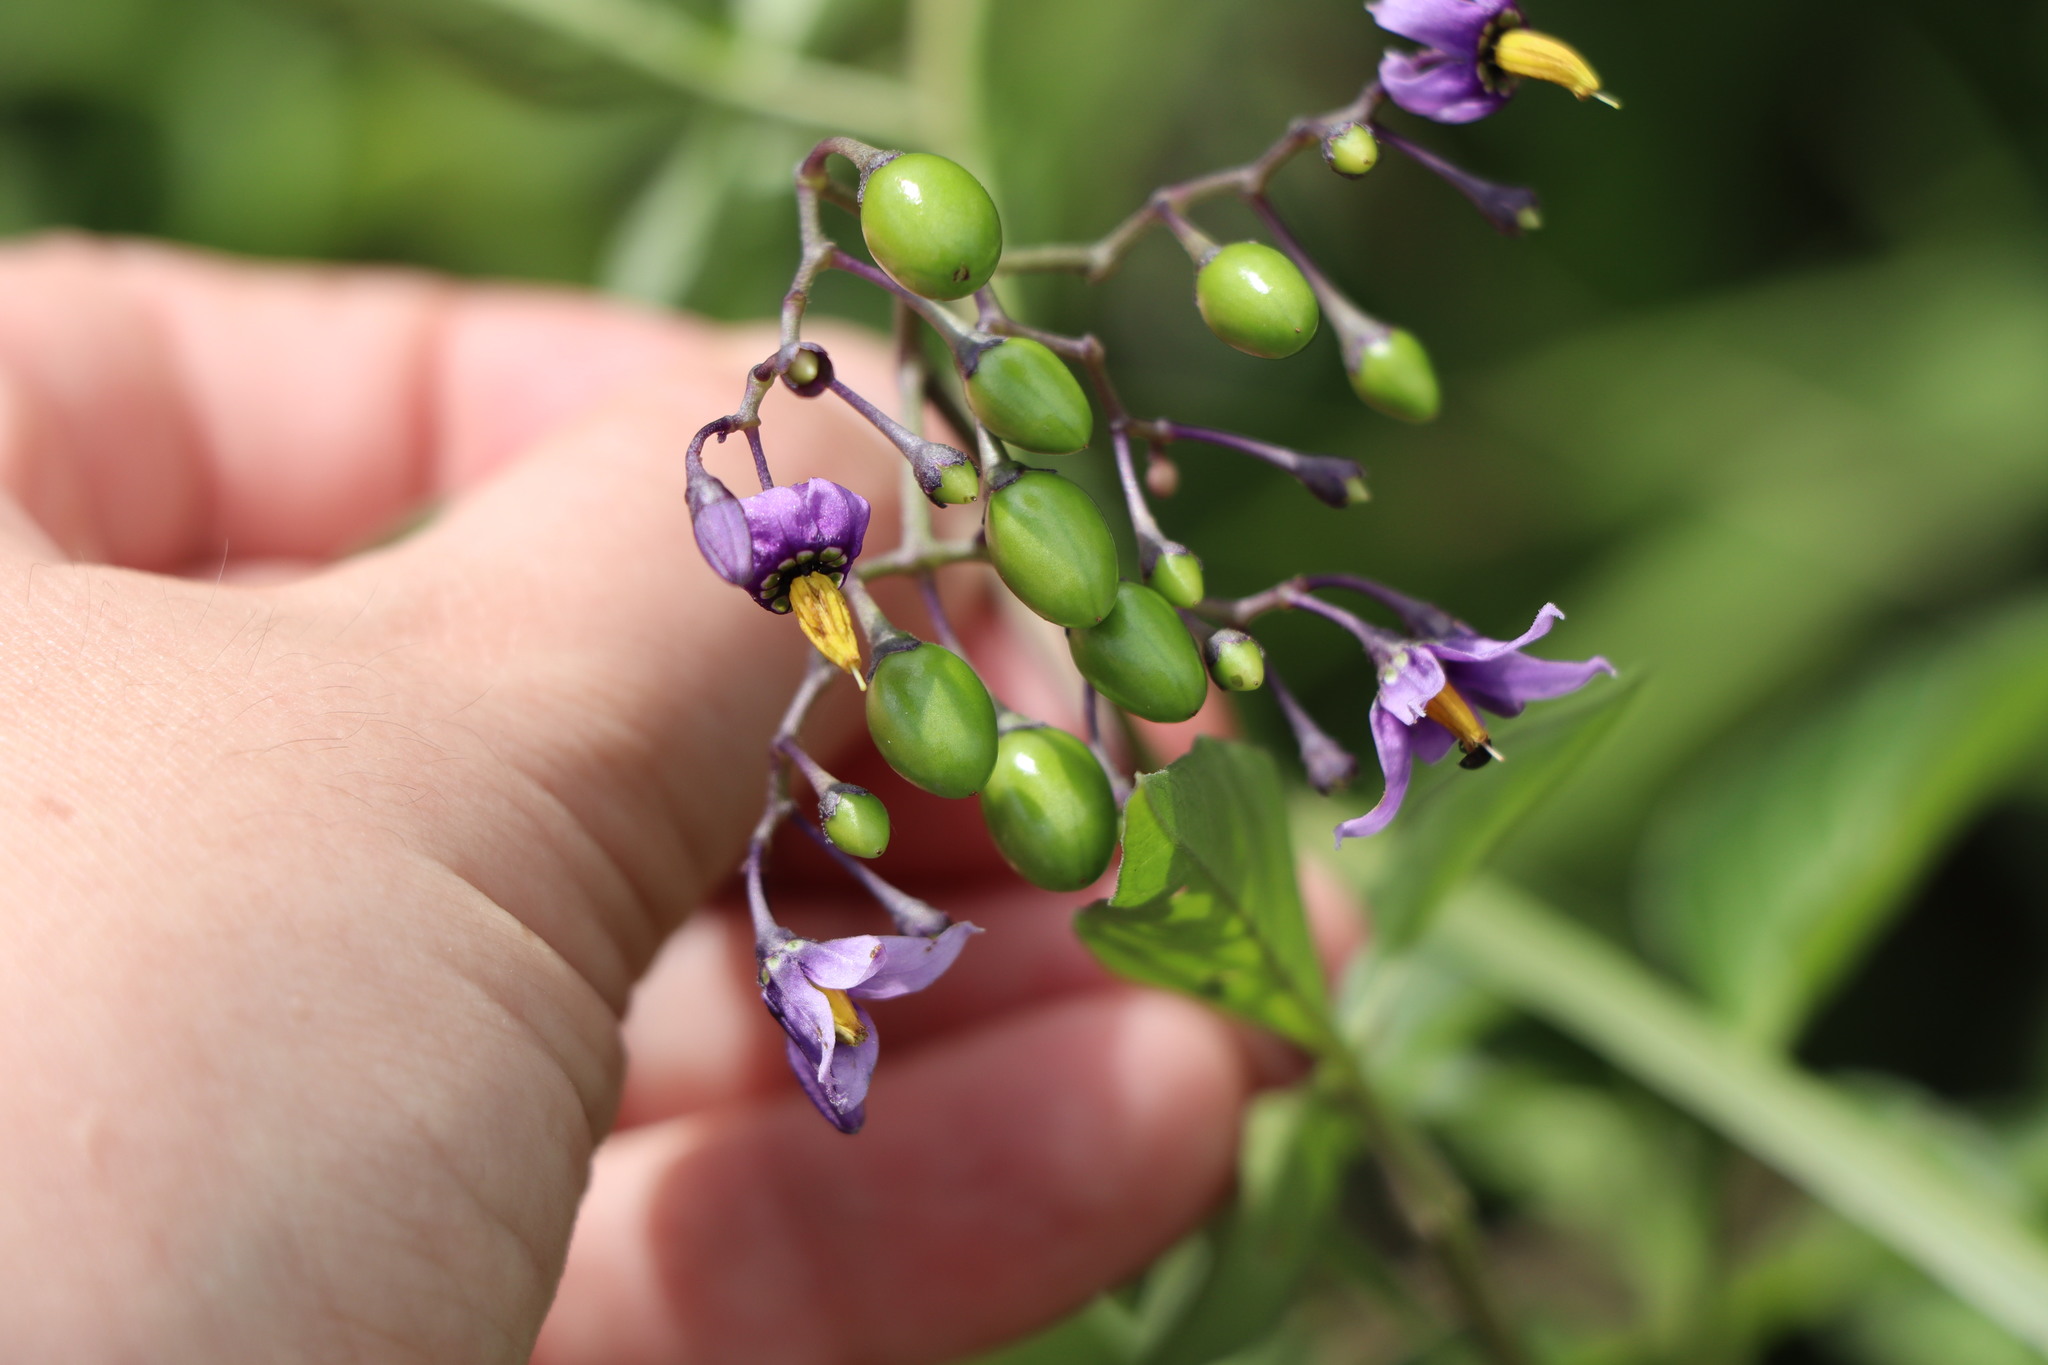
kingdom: Plantae
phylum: Tracheophyta
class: Magnoliopsida
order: Solanales
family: Solanaceae
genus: Solanum
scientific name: Solanum dulcamara
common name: Climbing nightshade
